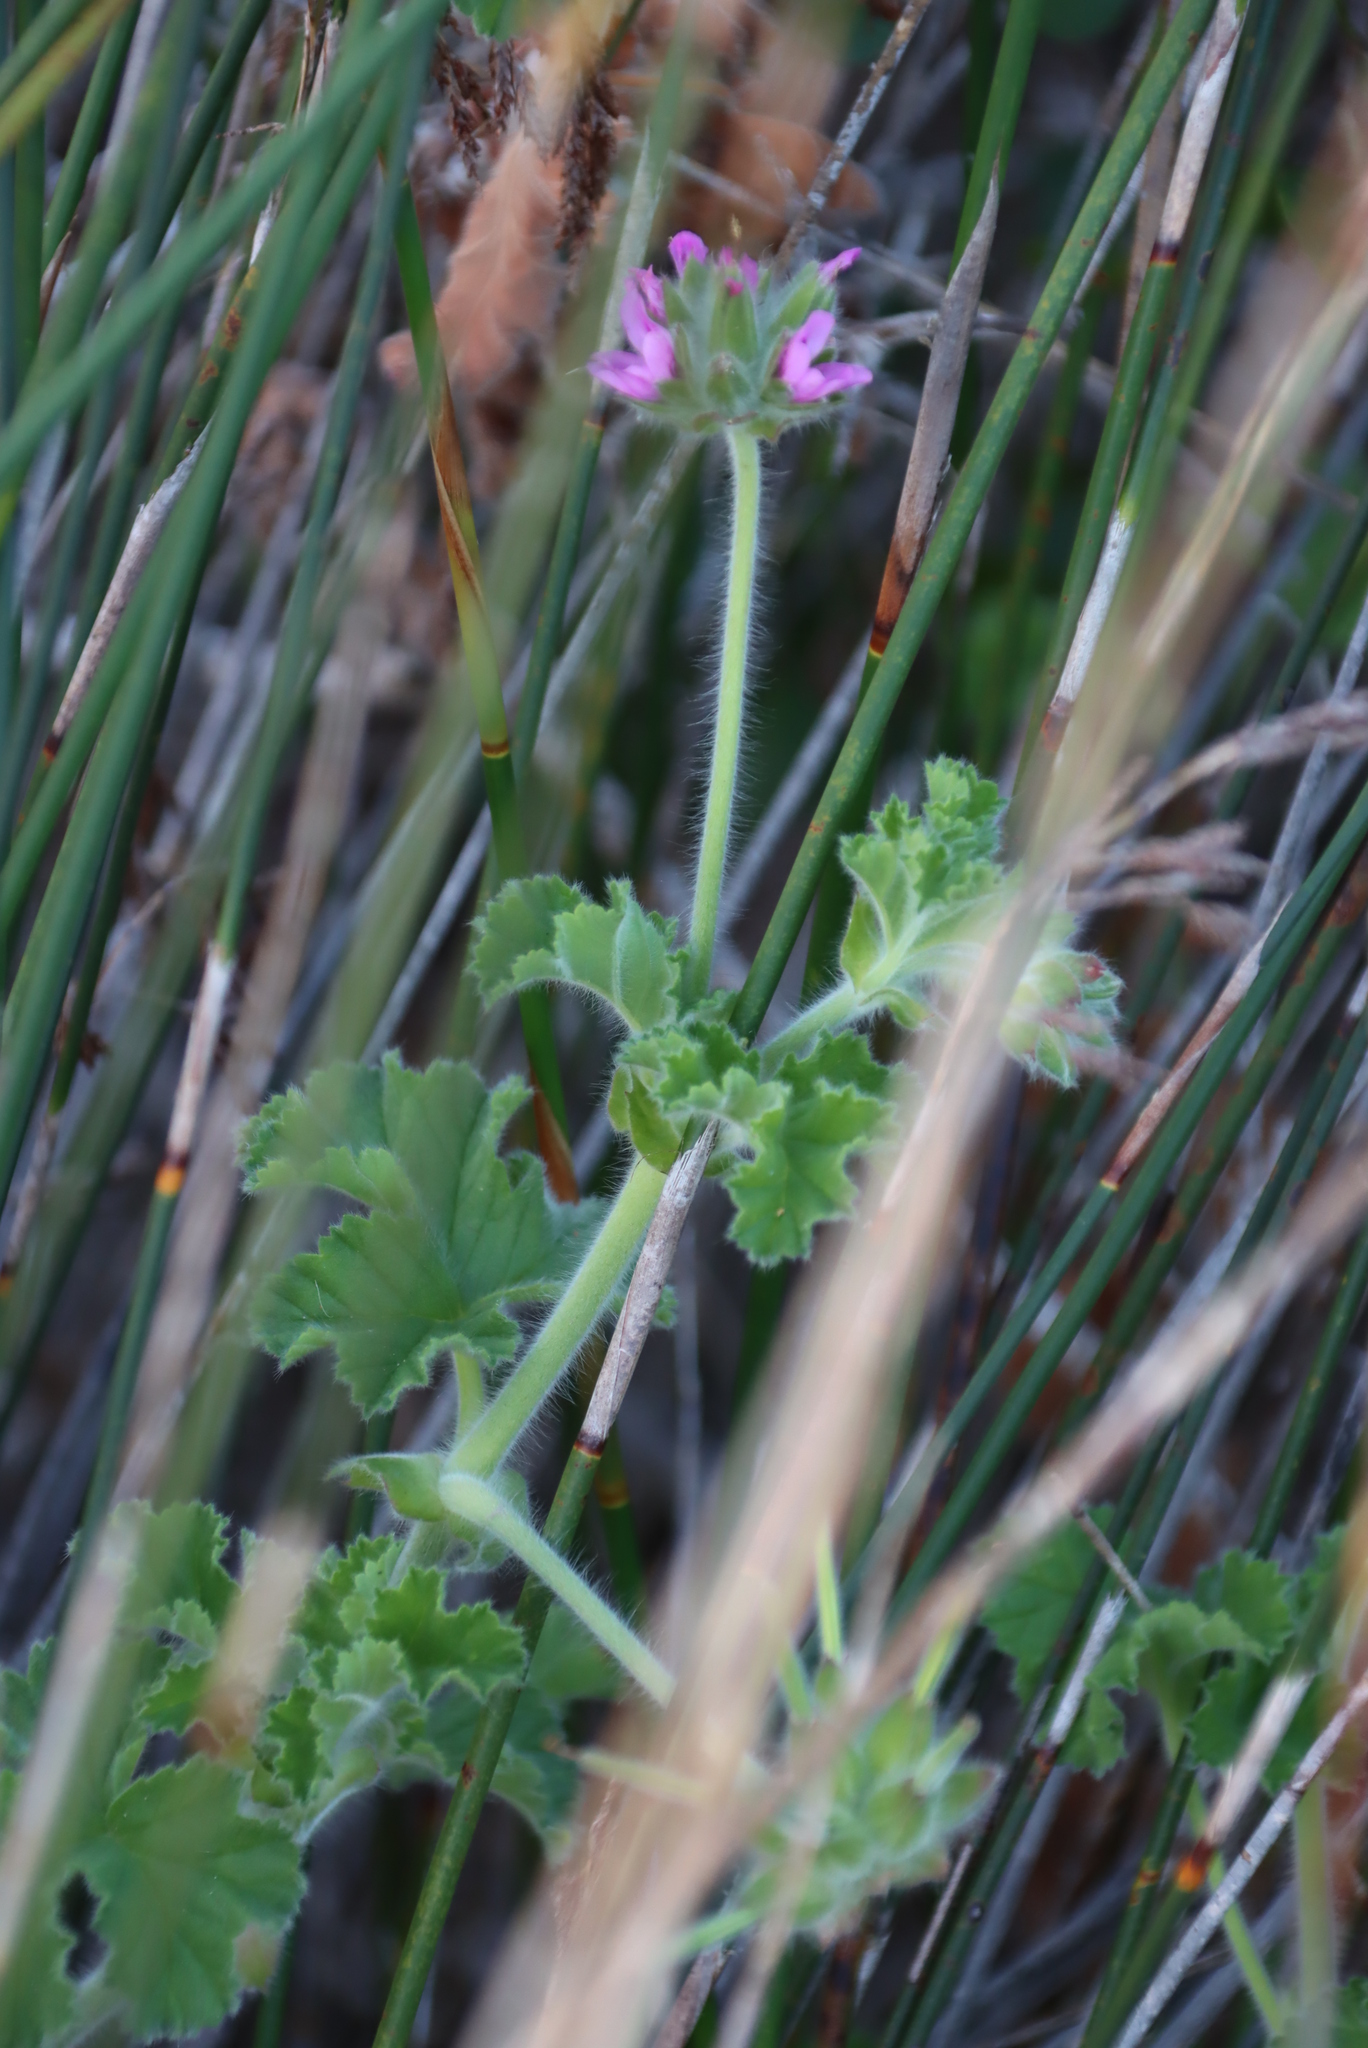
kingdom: Plantae
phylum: Tracheophyta
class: Magnoliopsida
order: Geraniales
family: Geraniaceae
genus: Pelargonium
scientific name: Pelargonium capitatum
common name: Rose scented geranium
